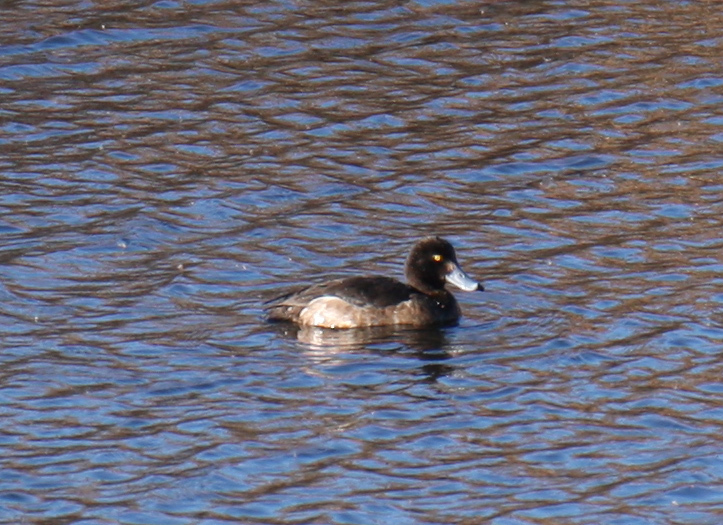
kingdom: Animalia
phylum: Chordata
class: Aves
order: Anseriformes
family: Anatidae
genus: Aythya
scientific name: Aythya fuligula
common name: Tufted duck
